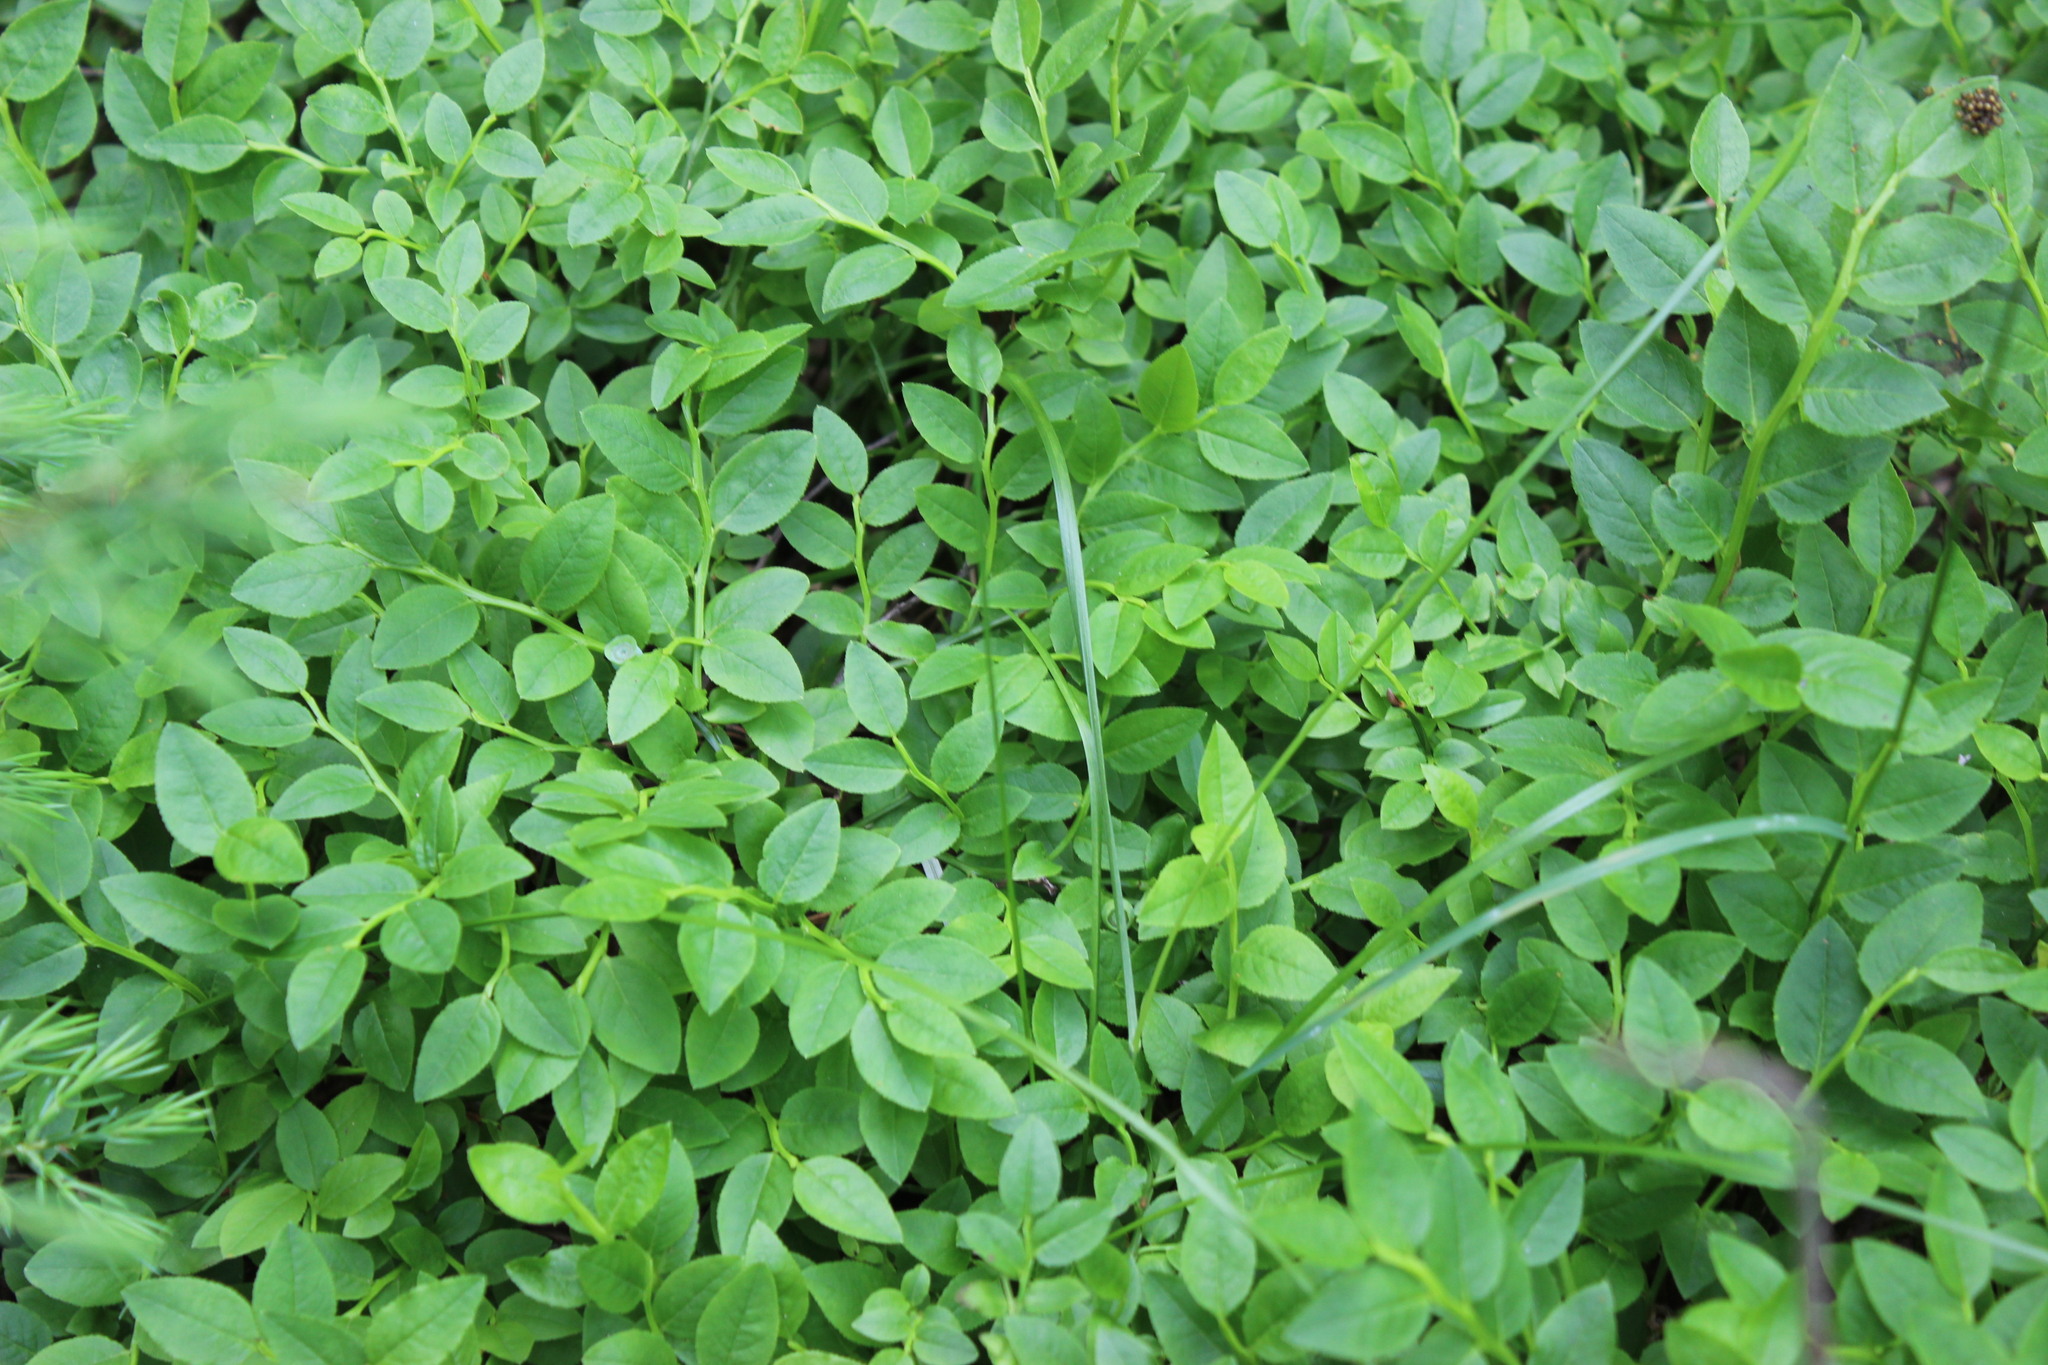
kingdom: Plantae
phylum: Tracheophyta
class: Magnoliopsida
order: Ericales
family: Ericaceae
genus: Vaccinium
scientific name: Vaccinium myrtillus
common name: Bilberry
